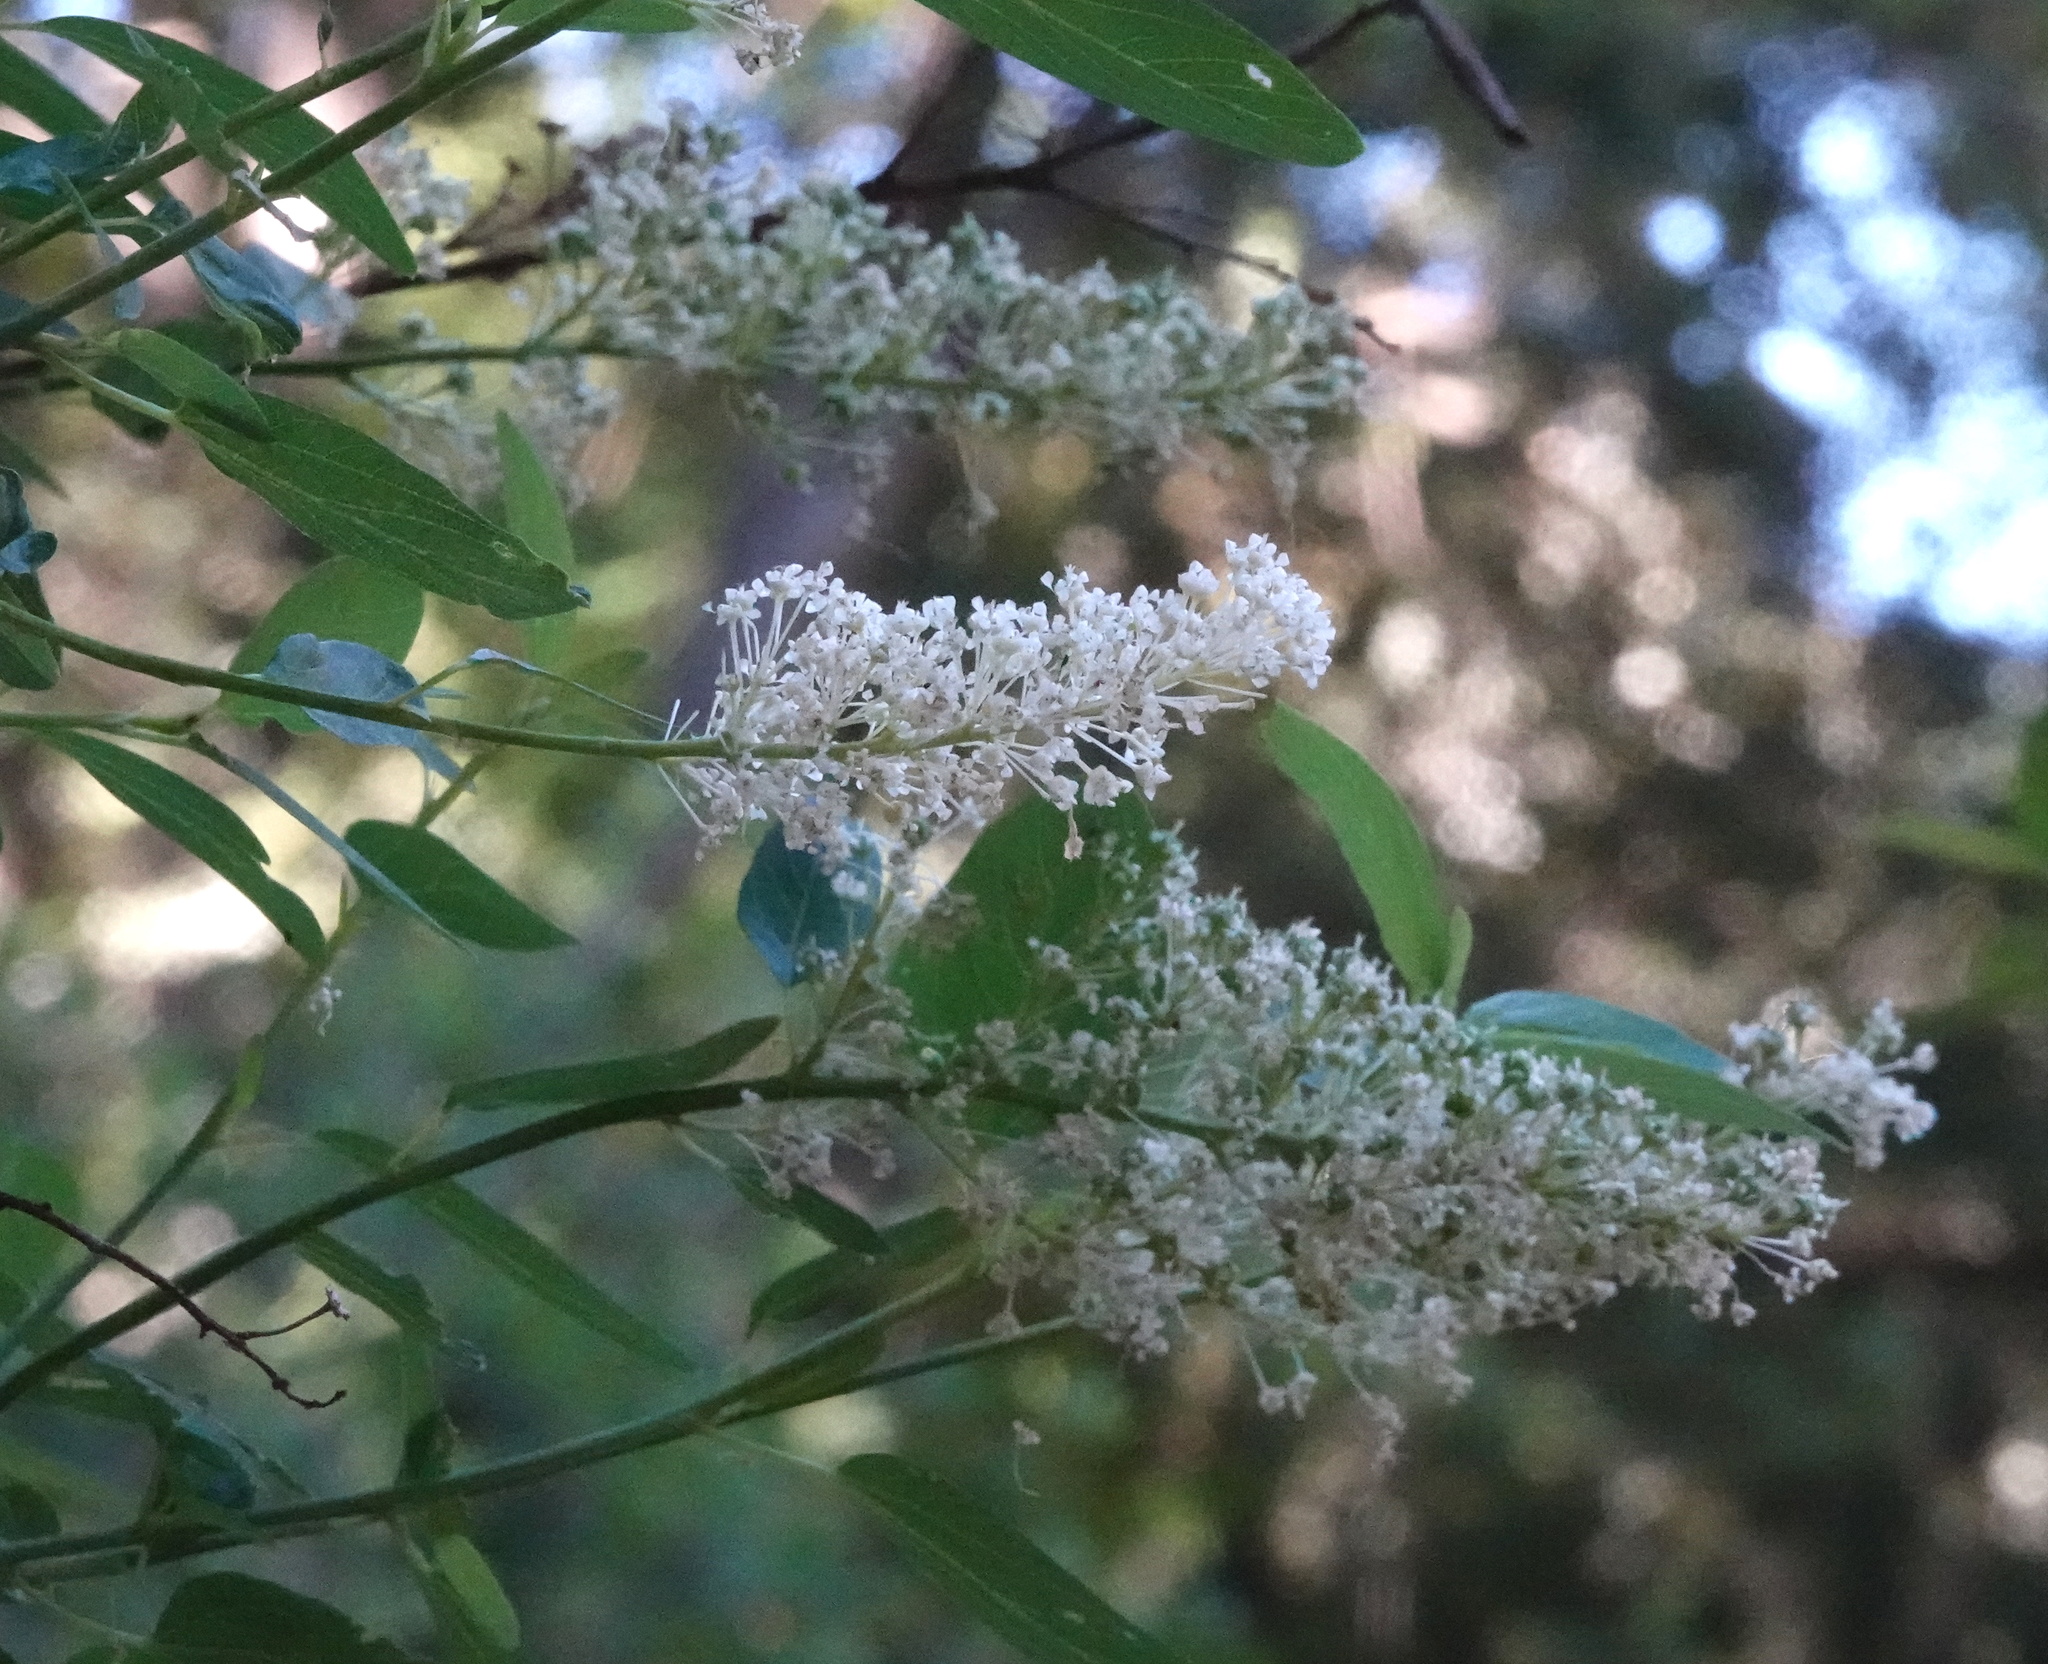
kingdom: Plantae
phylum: Tracheophyta
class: Magnoliopsida
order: Rosales
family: Rhamnaceae
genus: Ceanothus
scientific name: Ceanothus integerrimus
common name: Deerbrush ceanothus
